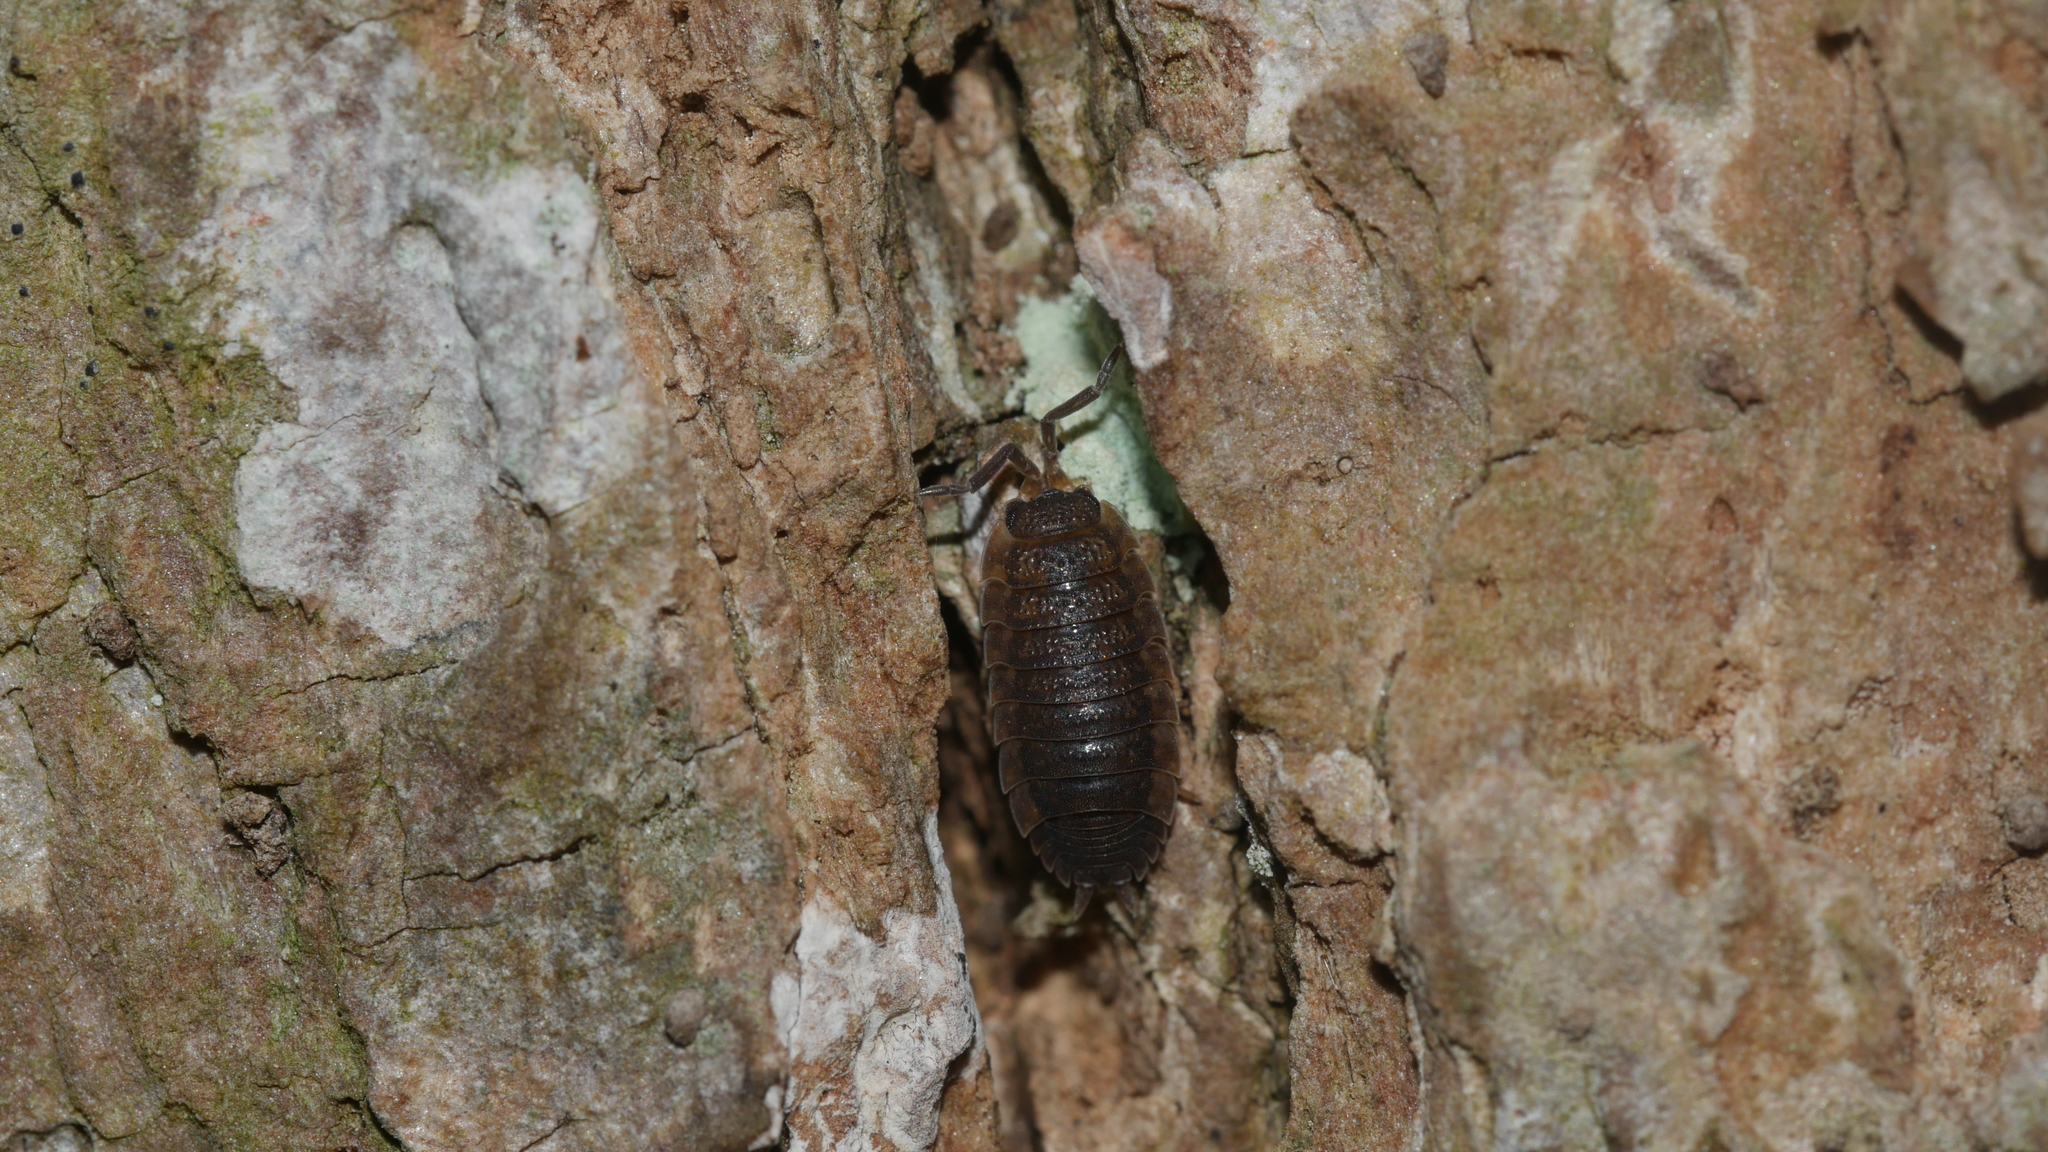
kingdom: Animalia
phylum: Arthropoda
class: Malacostraca
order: Isopoda
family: Porcellionidae
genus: Porcellio
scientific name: Porcellio scaber
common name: Common rough woodlouse
